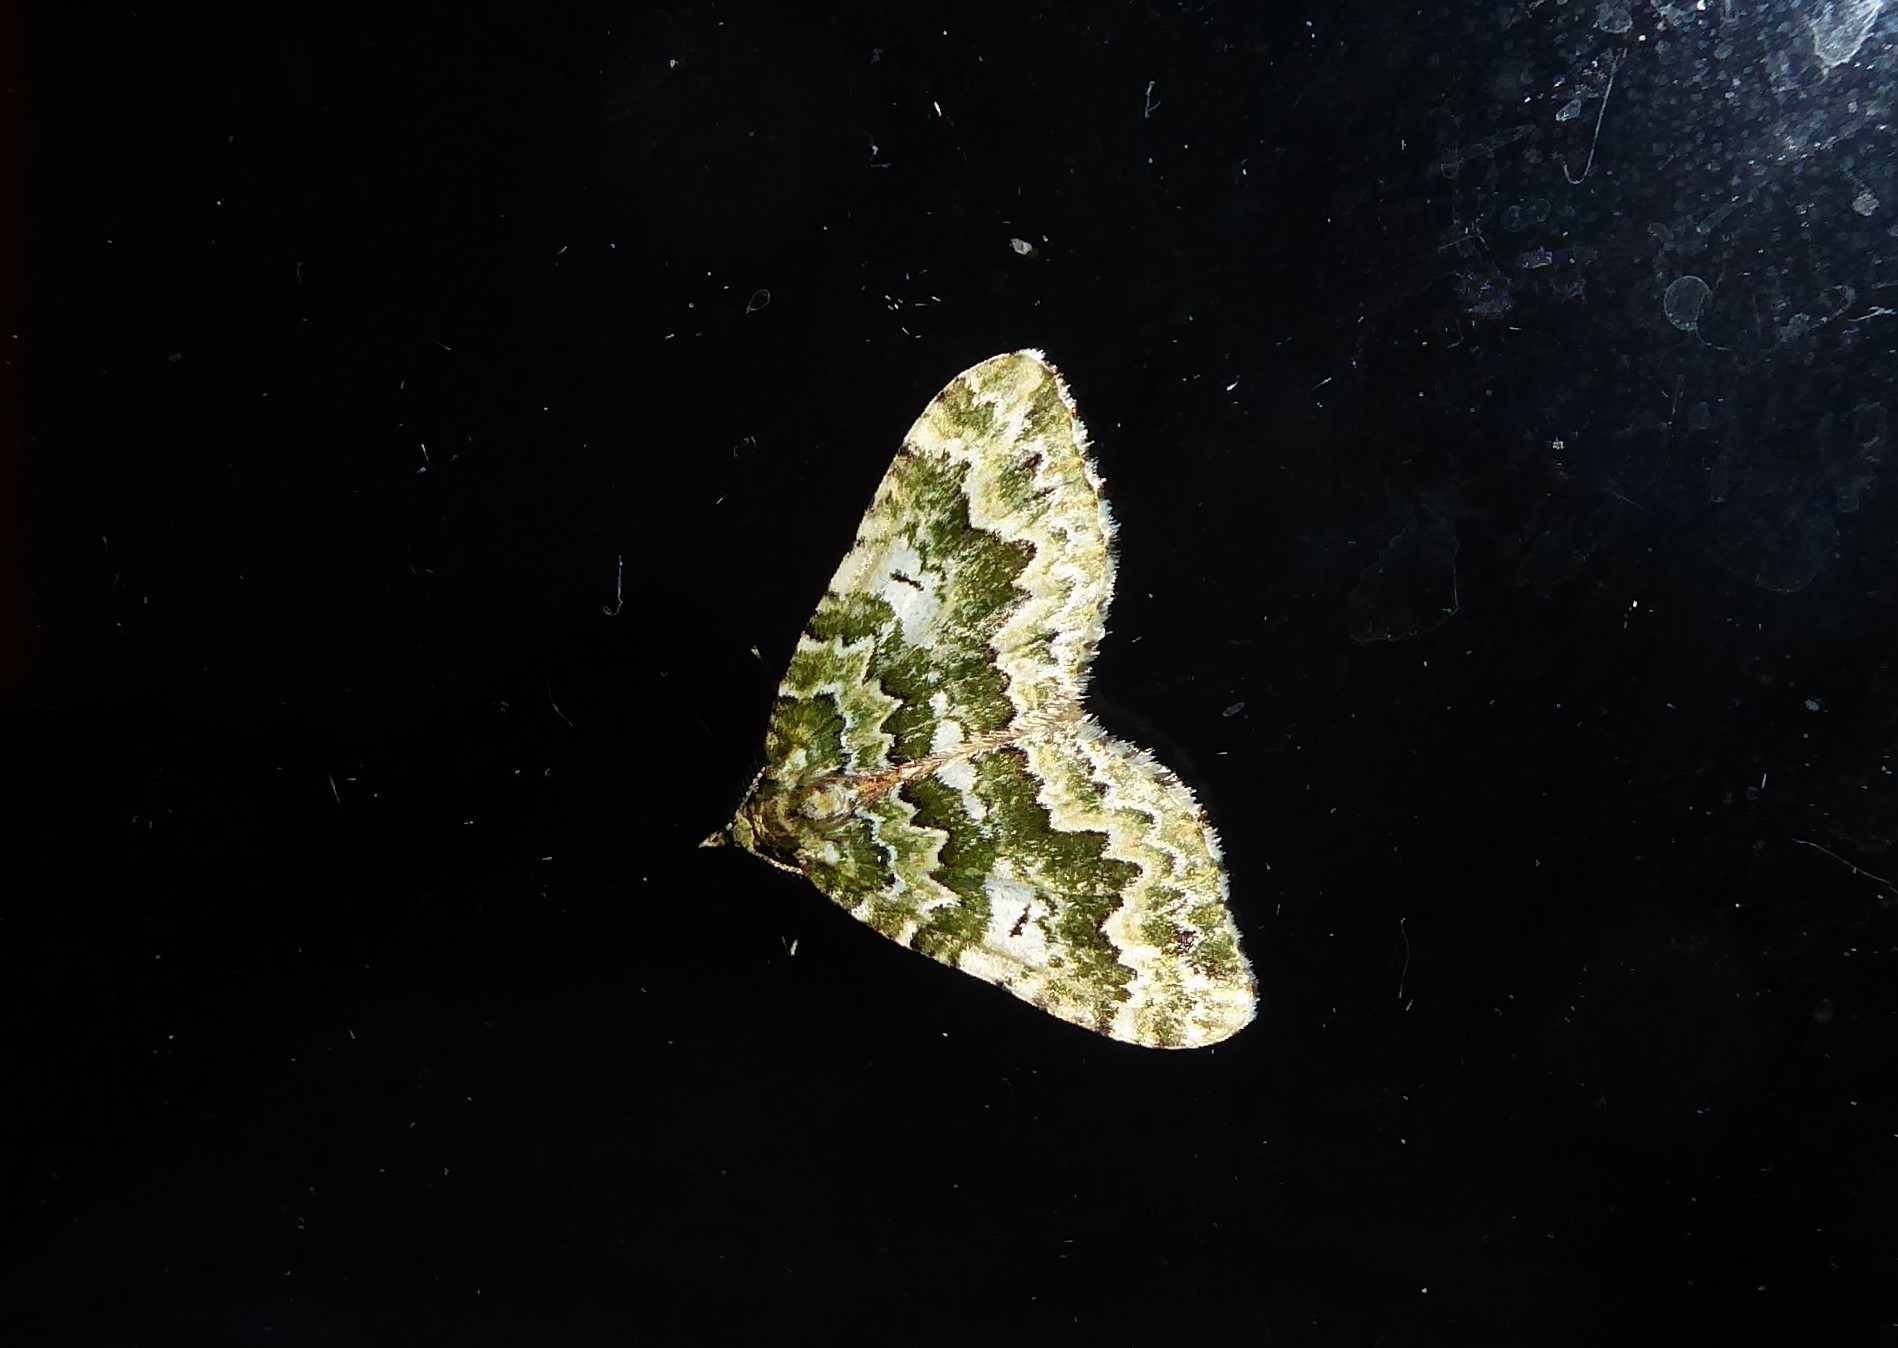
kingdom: Animalia
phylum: Arthropoda
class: Insecta
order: Lepidoptera
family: Geometridae
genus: Asaphodes
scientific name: Asaphodes beata
